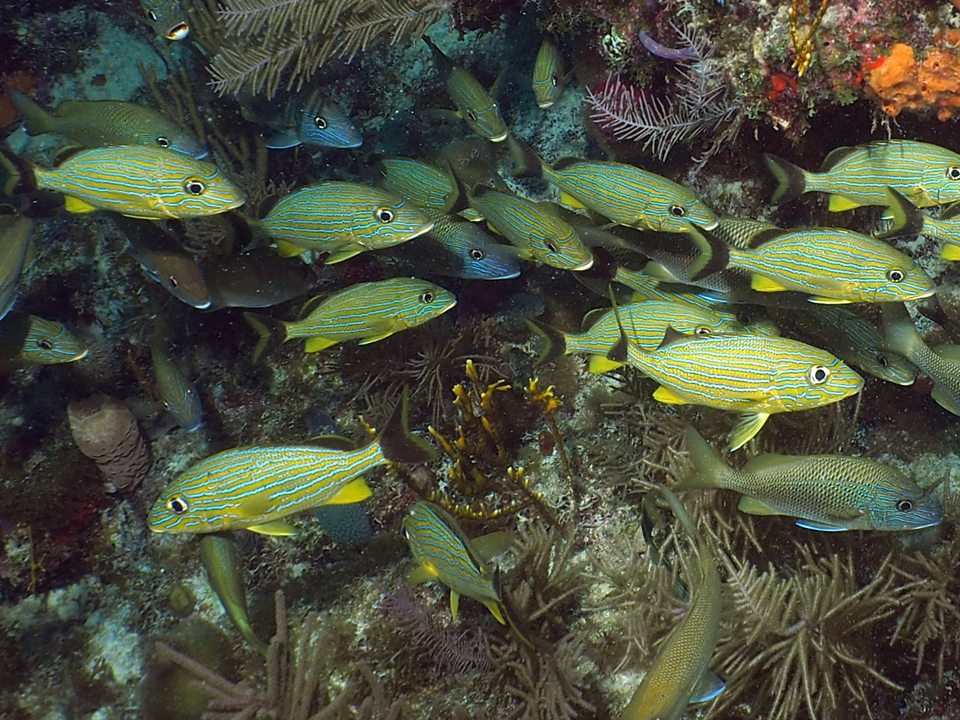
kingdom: Animalia
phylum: Chordata
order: Perciformes
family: Haemulidae
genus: Haemulon
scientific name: Haemulon sciurus
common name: Bluestriped grunt
